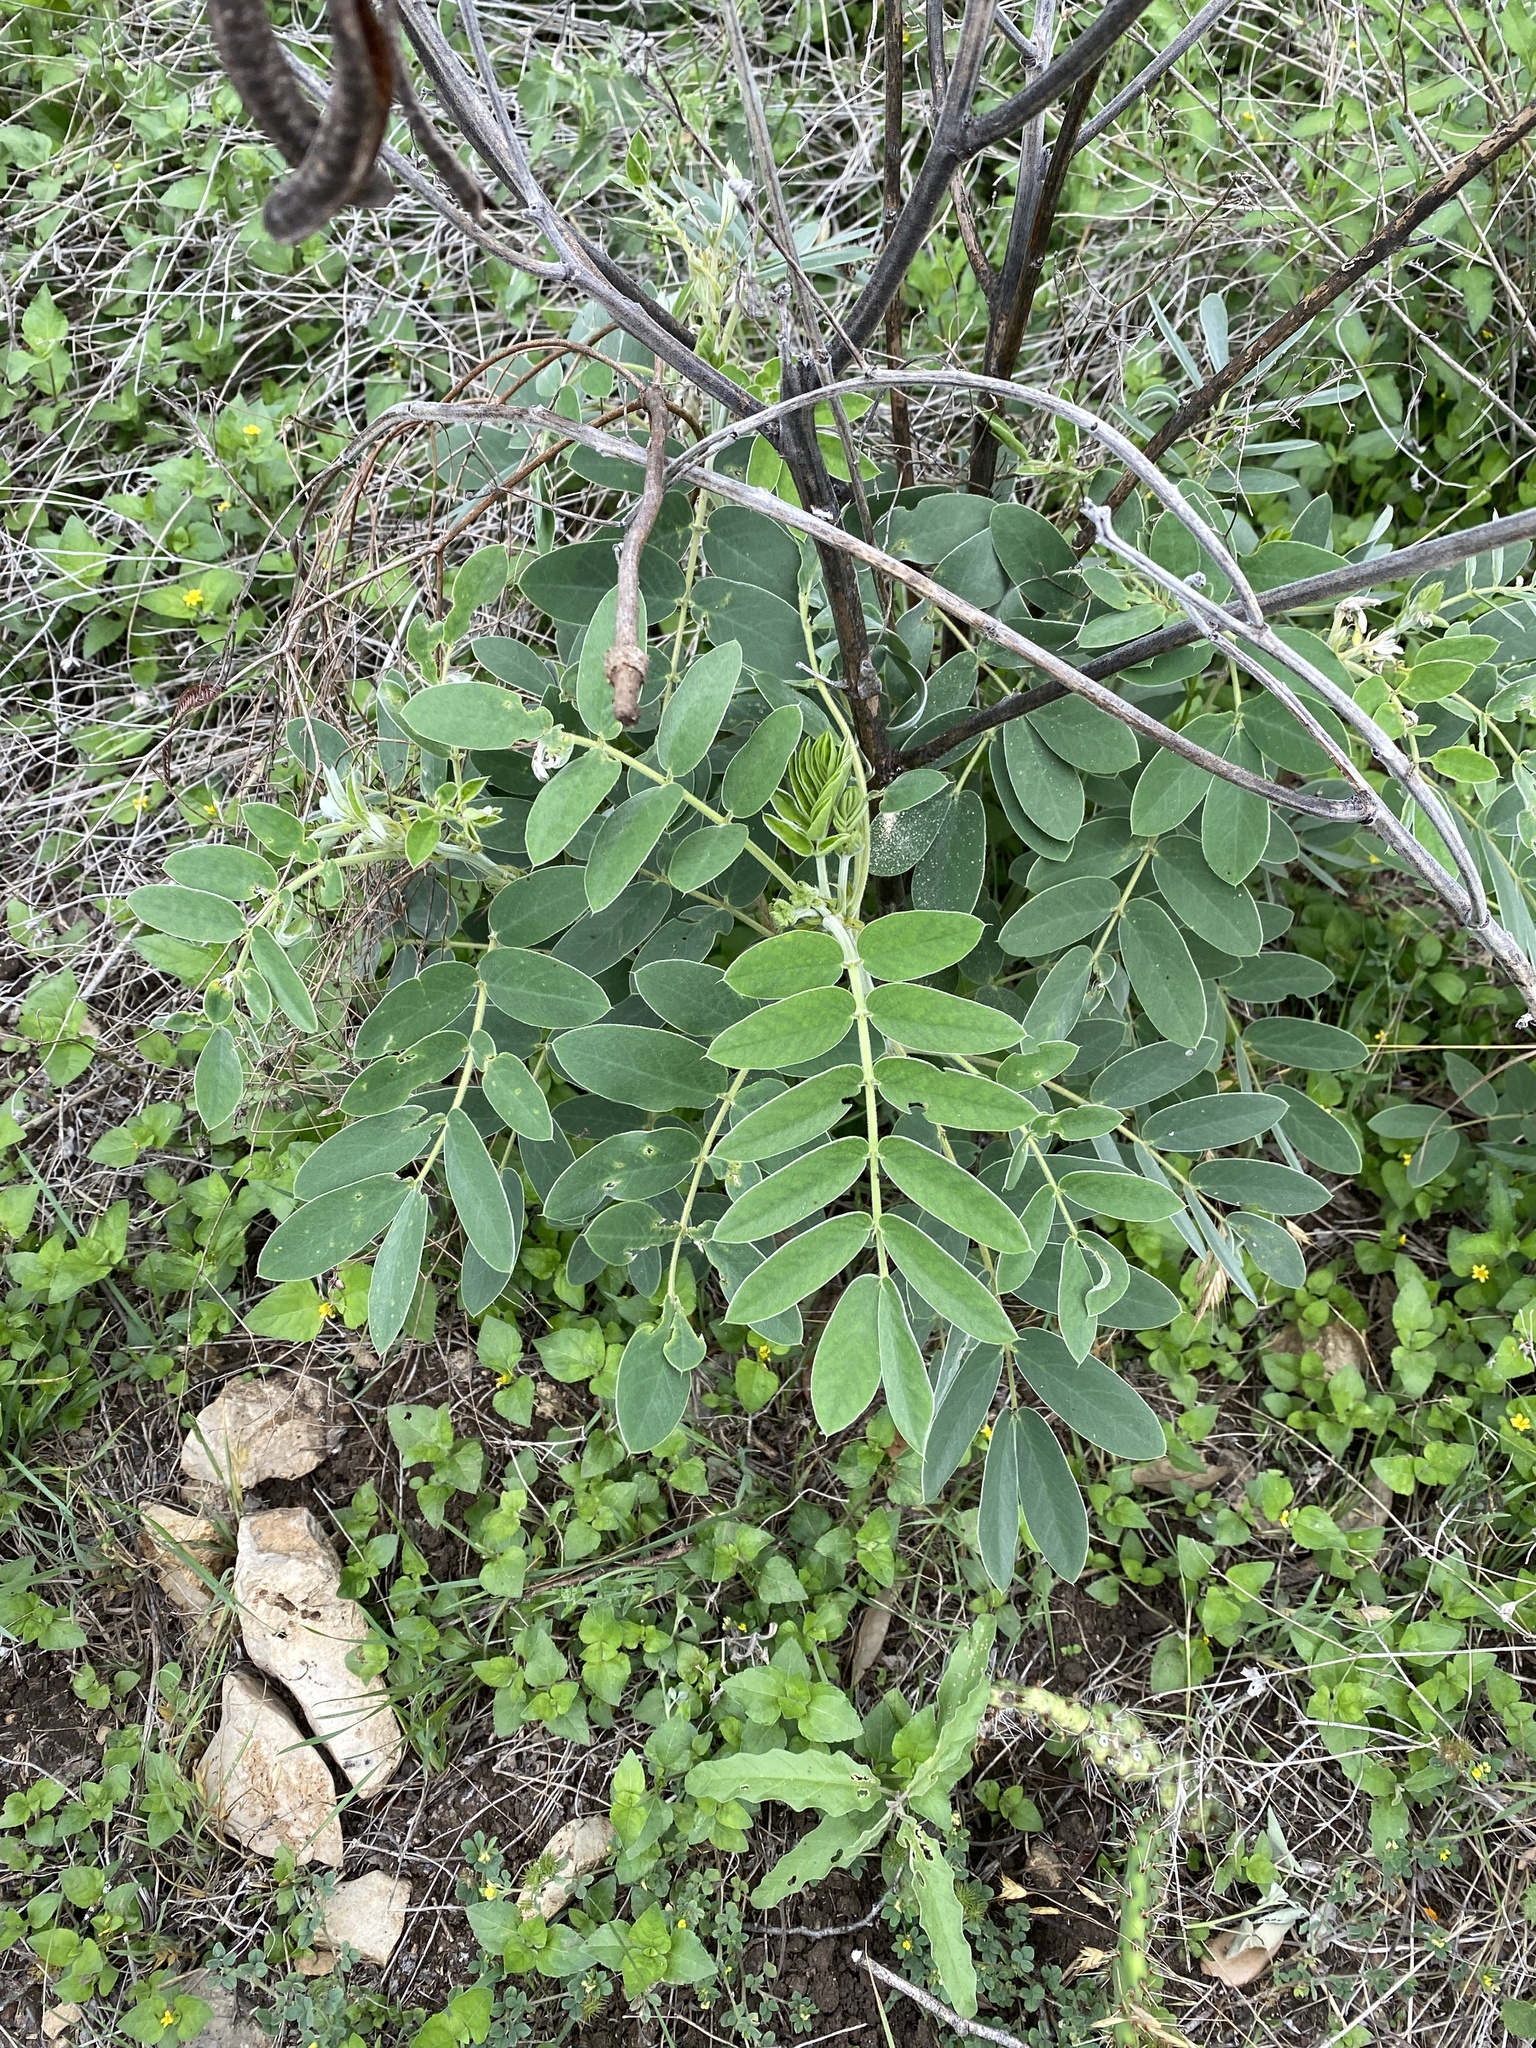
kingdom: Plantae
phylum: Tracheophyta
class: Magnoliopsida
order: Fabales
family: Fabaceae
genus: Senna
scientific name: Senna lindheimeriana
